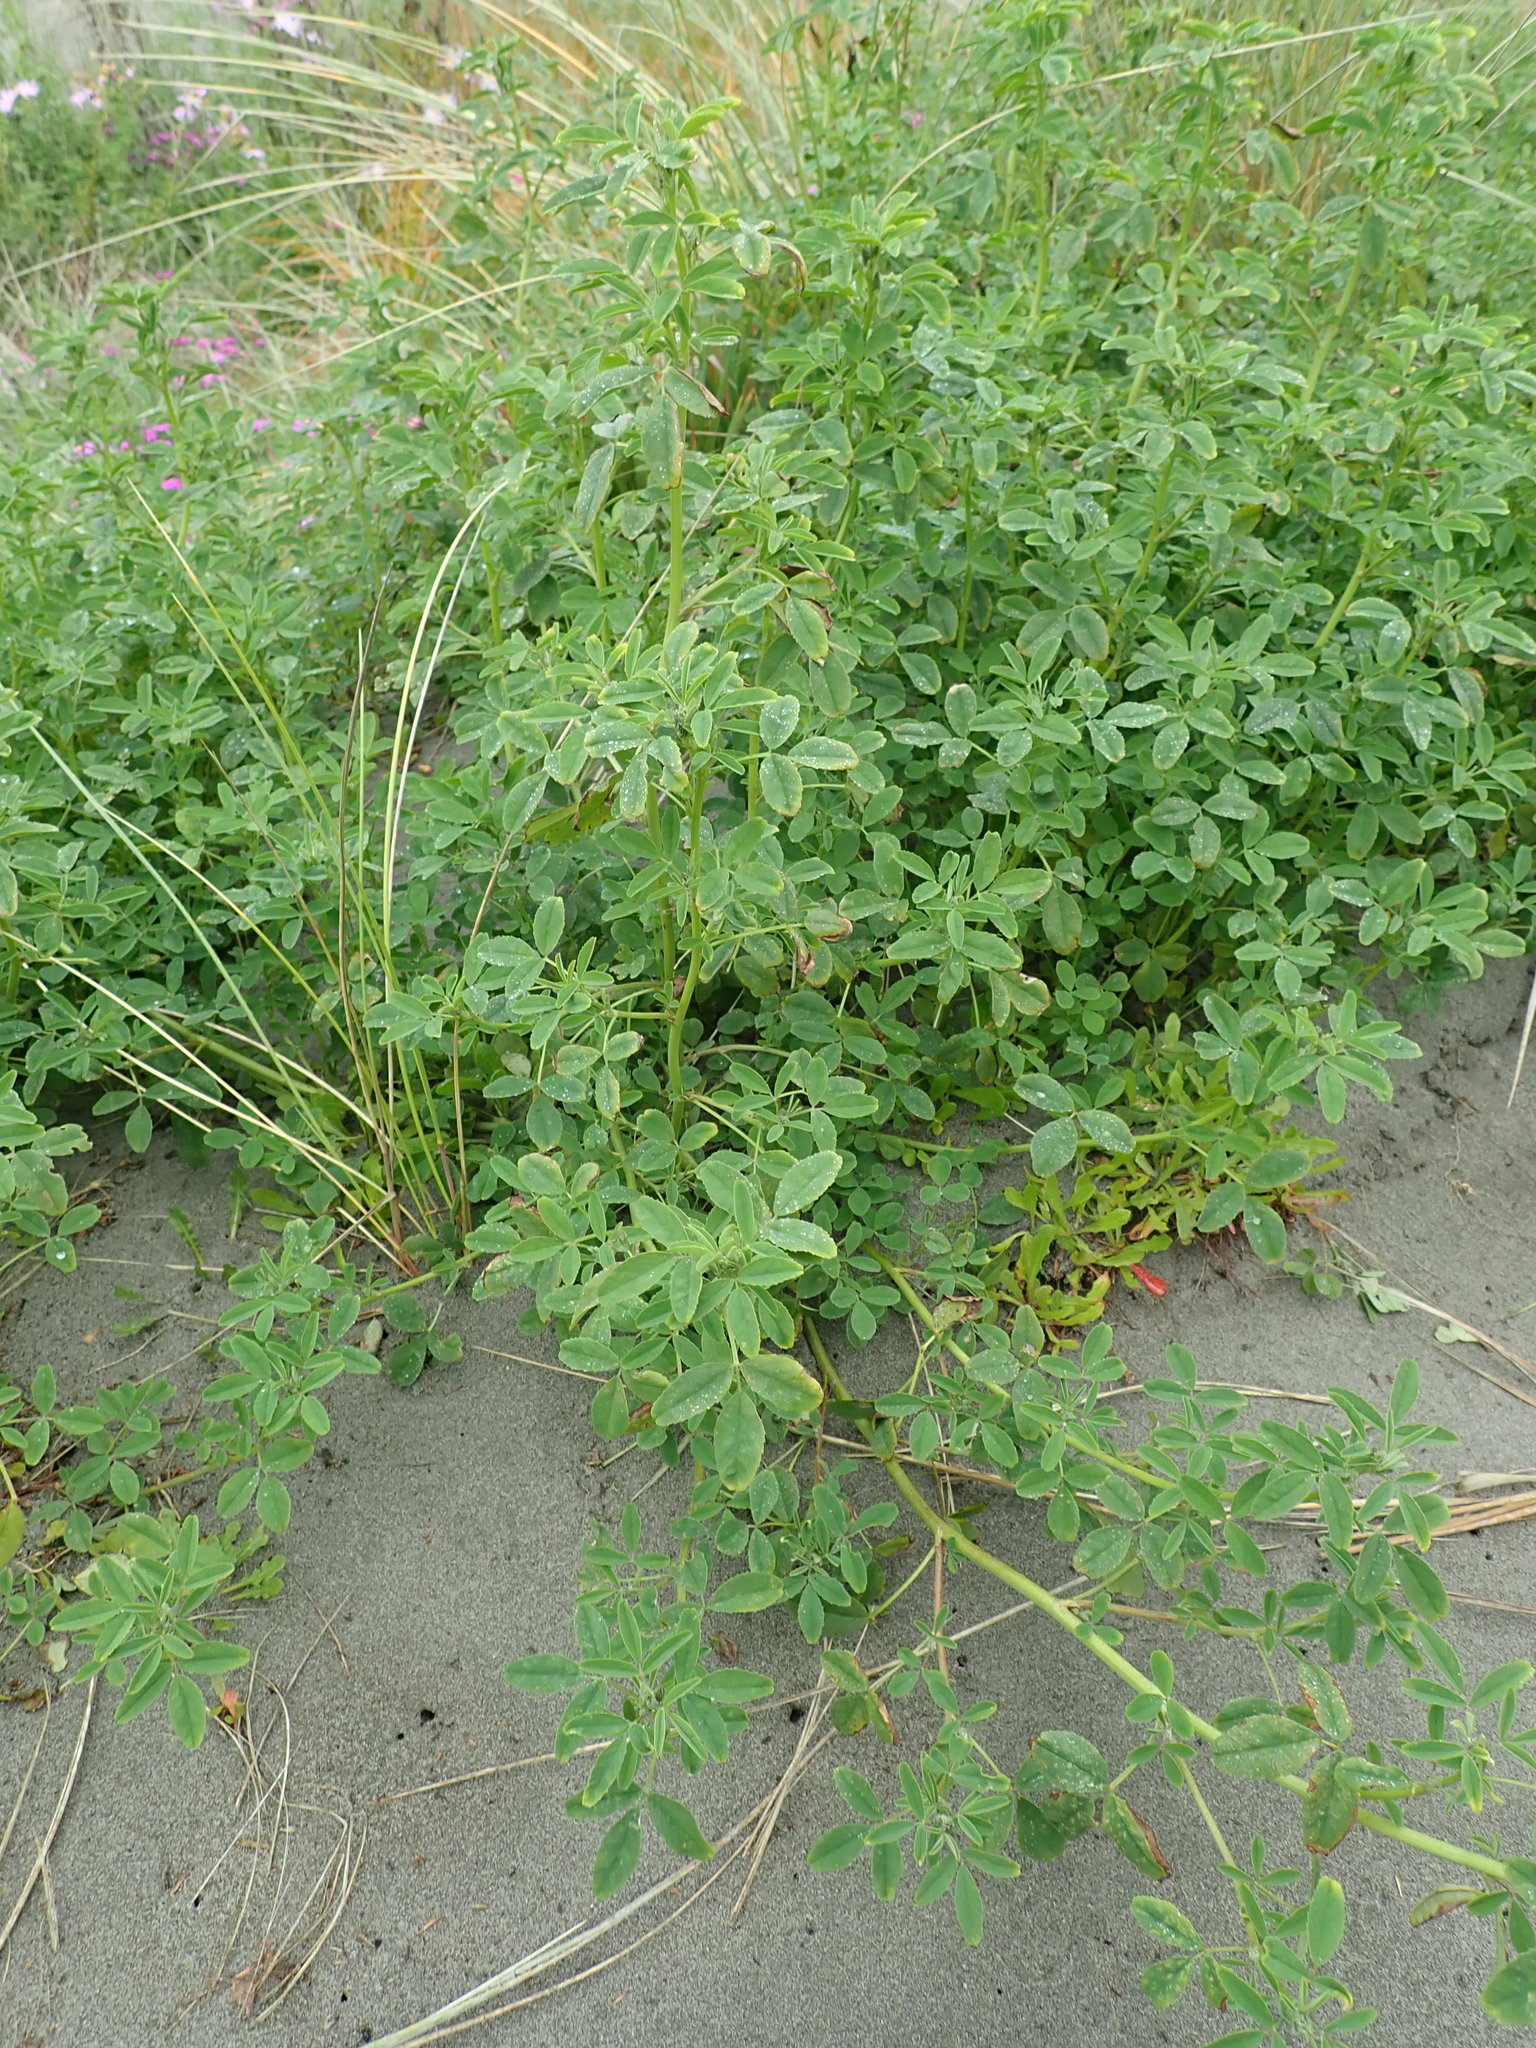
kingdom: Plantae
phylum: Tracheophyta
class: Magnoliopsida
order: Fabales
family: Fabaceae
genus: Melilotus
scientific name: Melilotus indicus
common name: Small melilot
